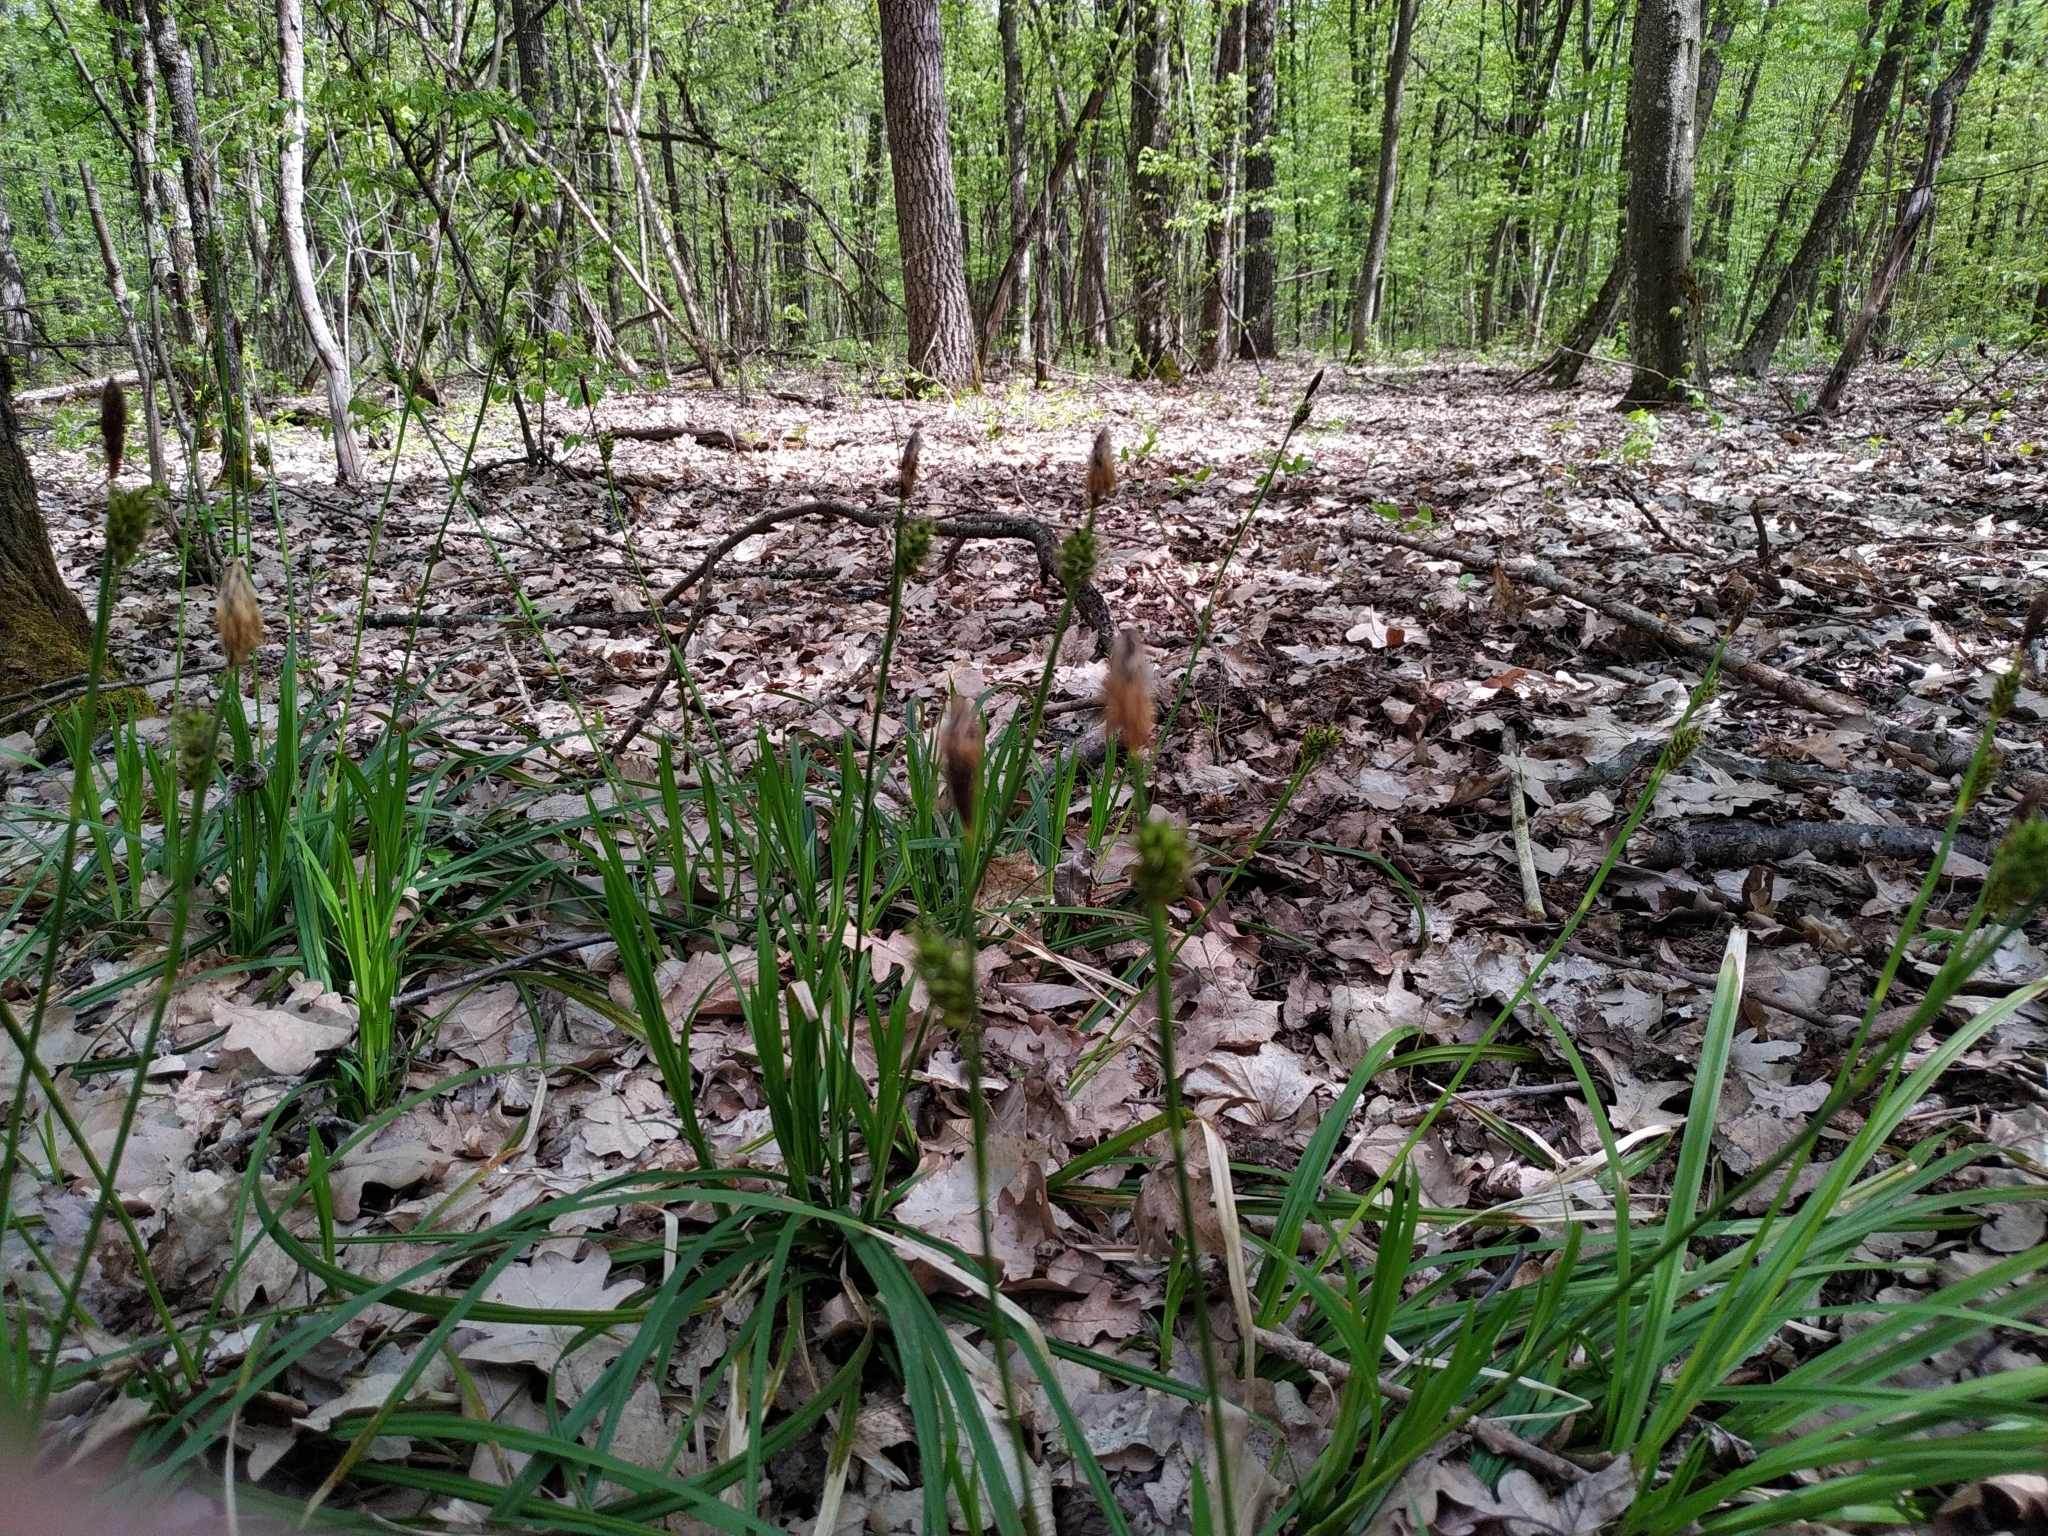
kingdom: Plantae
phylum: Tracheophyta
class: Liliopsida
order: Poales
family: Cyperaceae
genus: Carex
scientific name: Carex brevicollis
